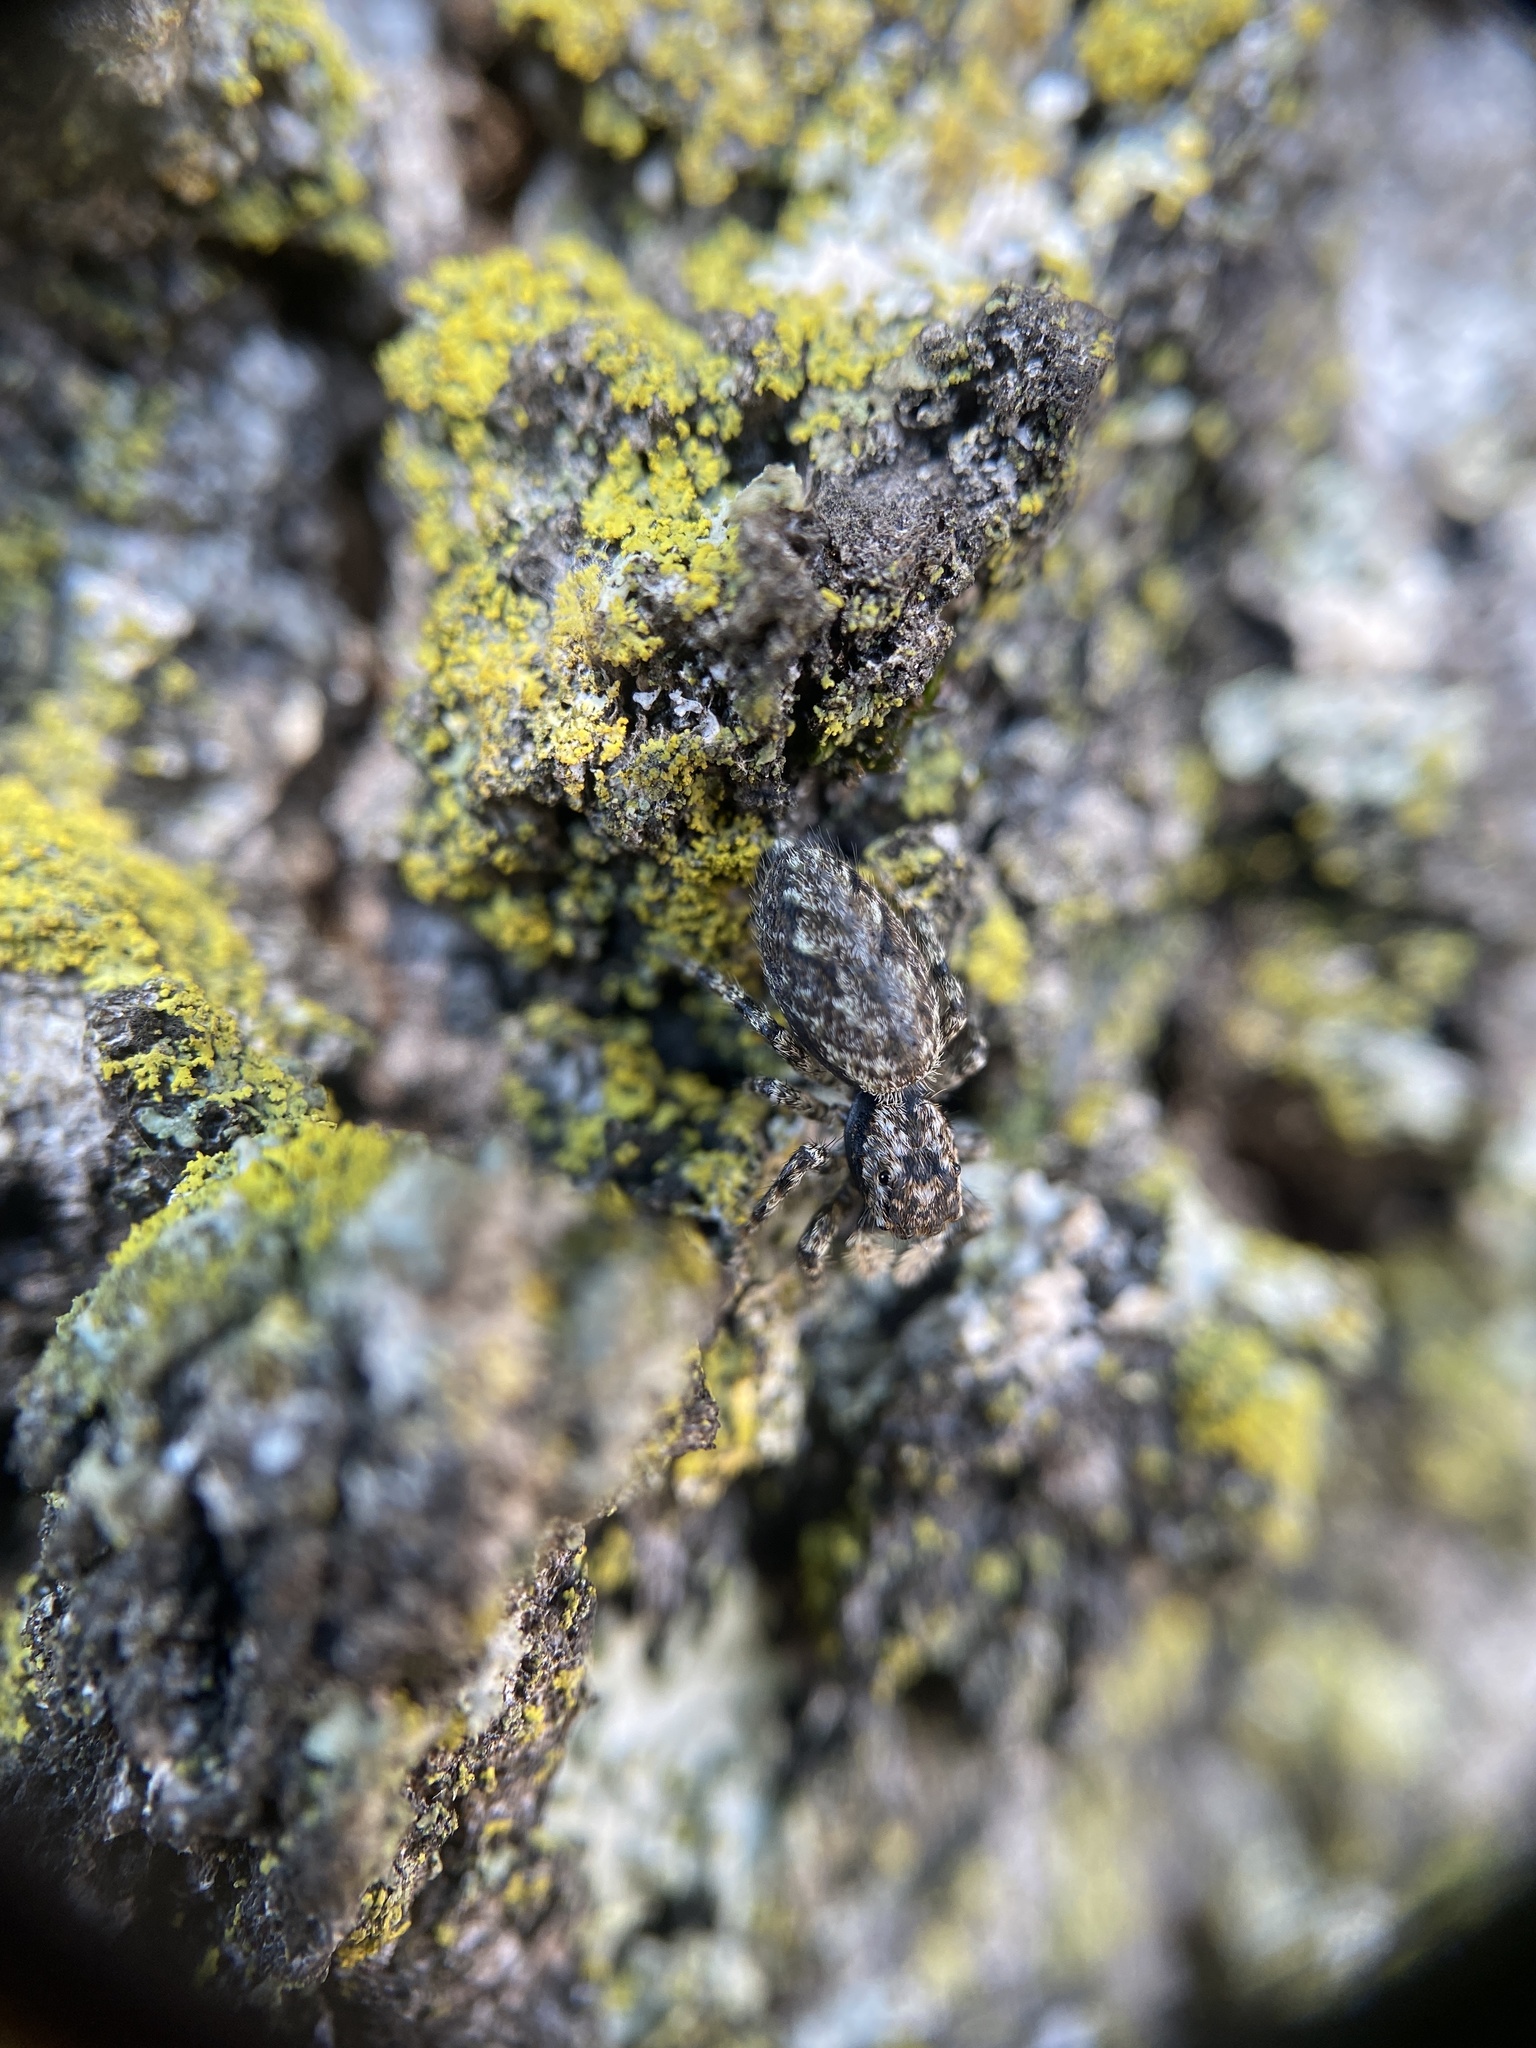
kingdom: Animalia
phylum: Arthropoda
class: Arachnida
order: Araneae
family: Salticidae
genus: Platycryptus
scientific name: Platycryptus undatus
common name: Tan jumping spider
